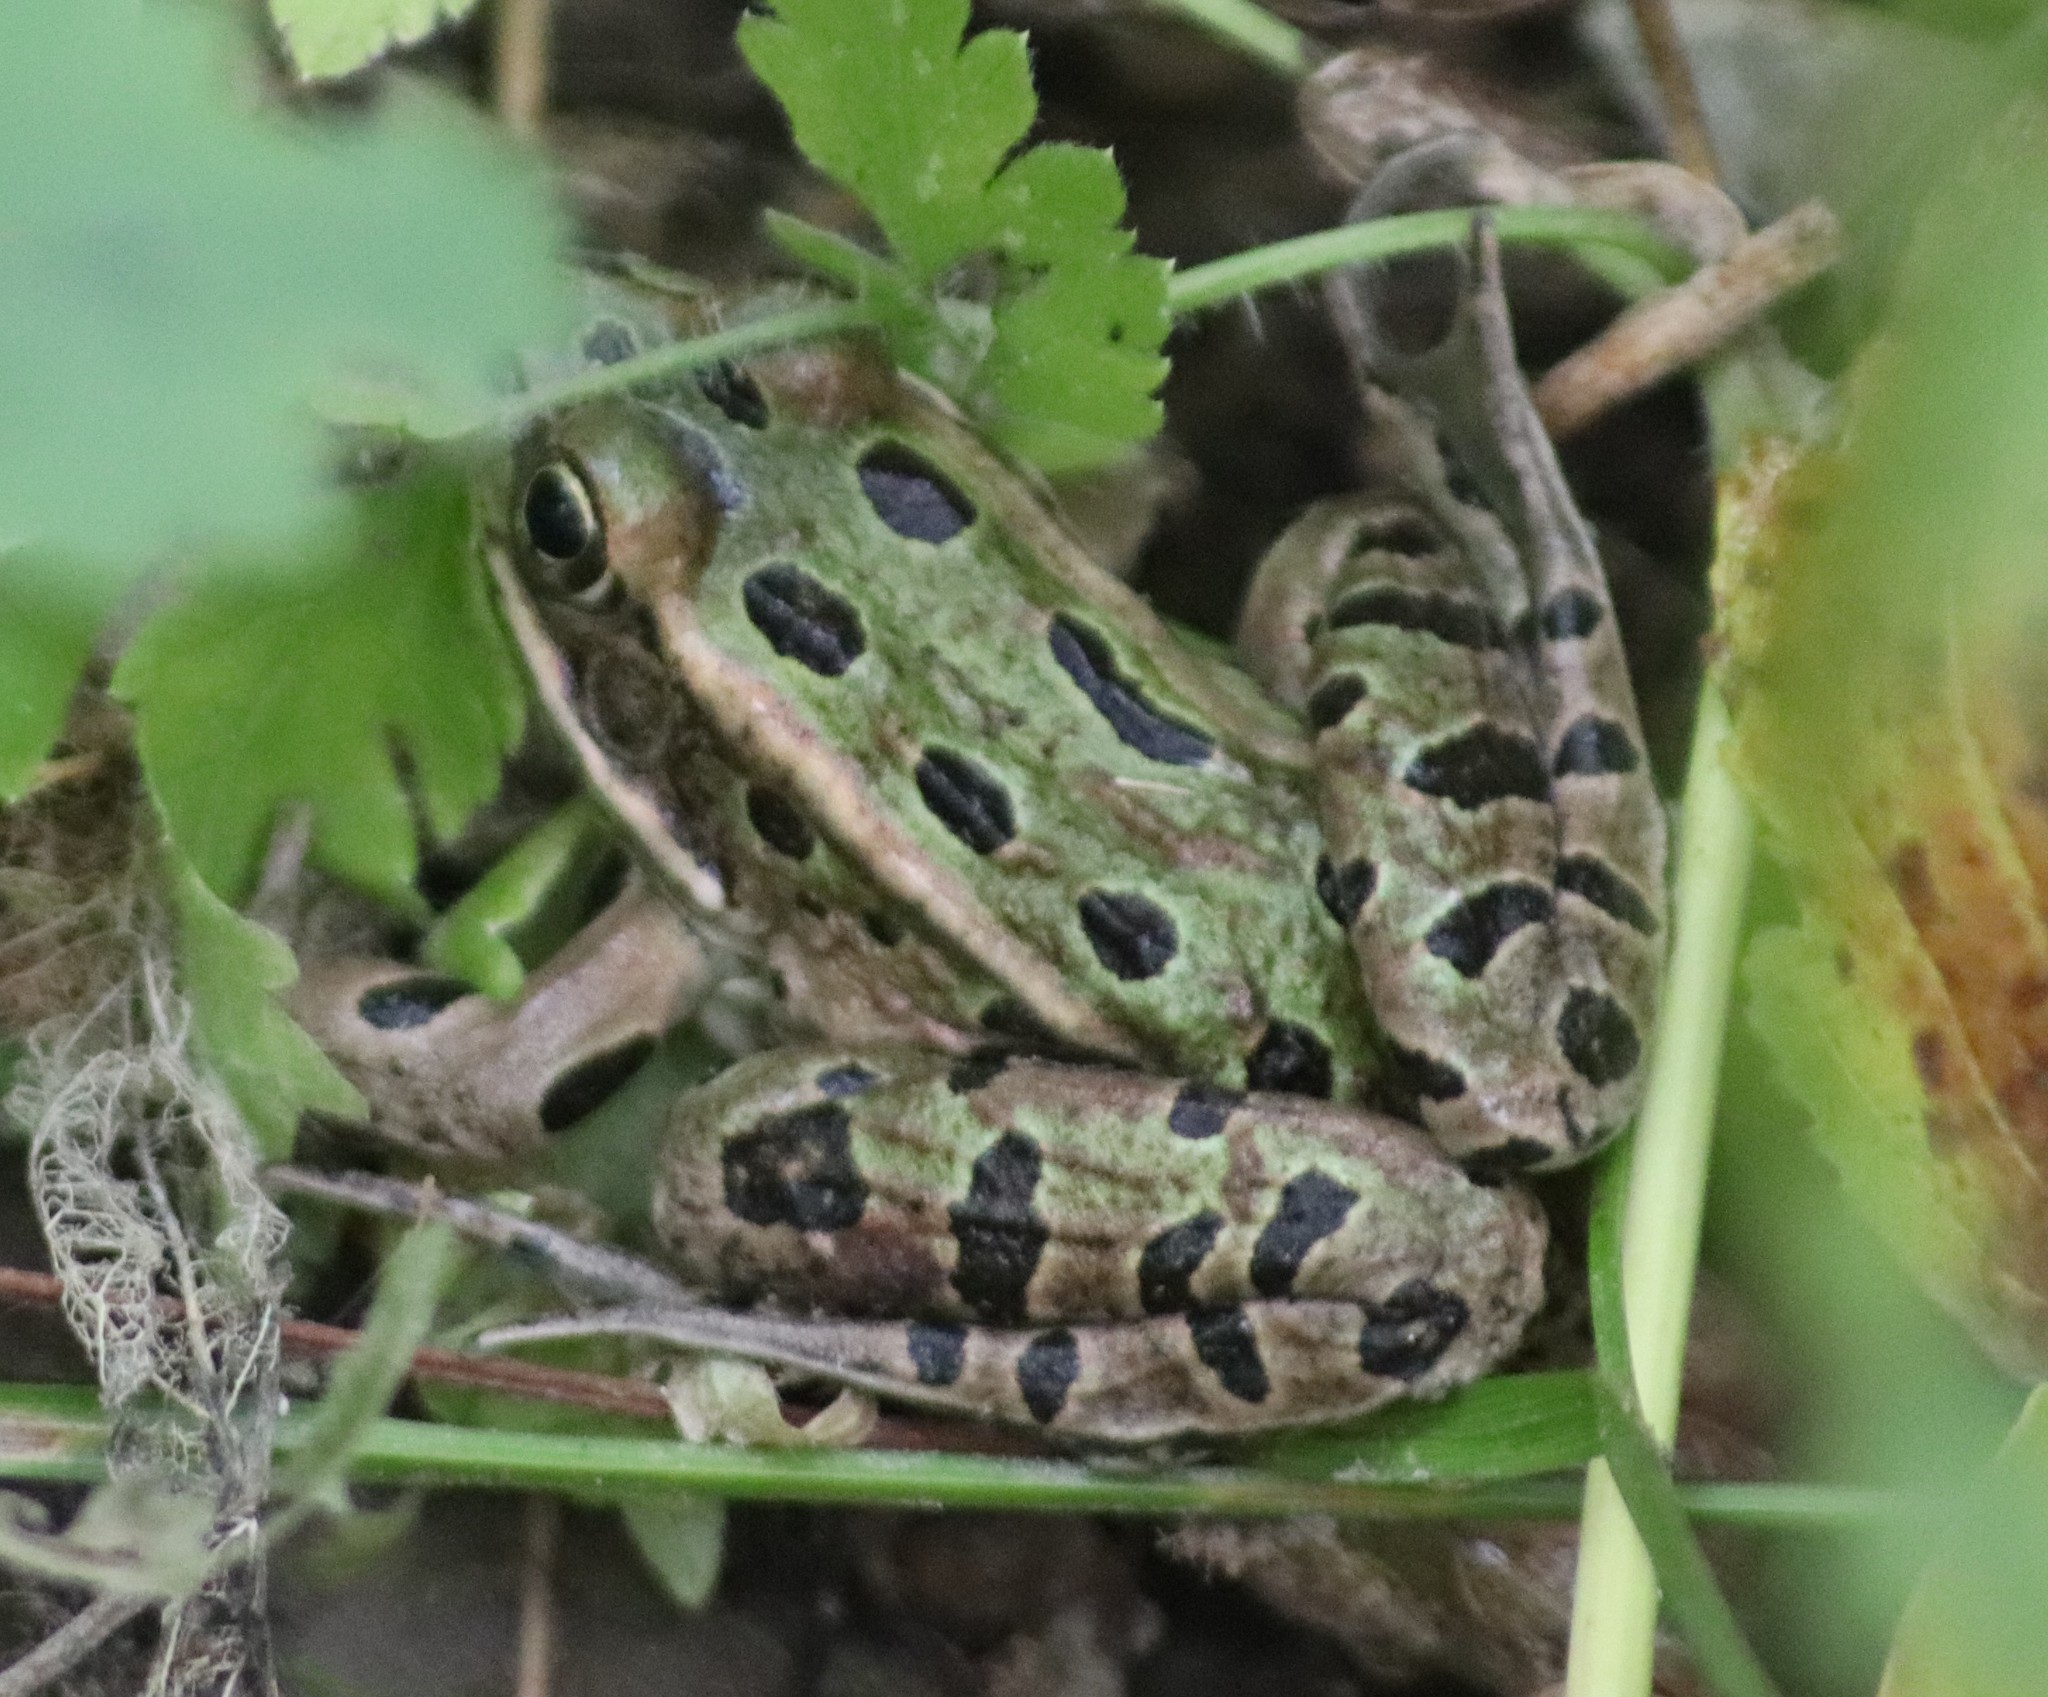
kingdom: Animalia
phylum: Chordata
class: Amphibia
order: Anura
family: Ranidae
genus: Lithobates
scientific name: Lithobates pipiens
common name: Northern leopard frog
